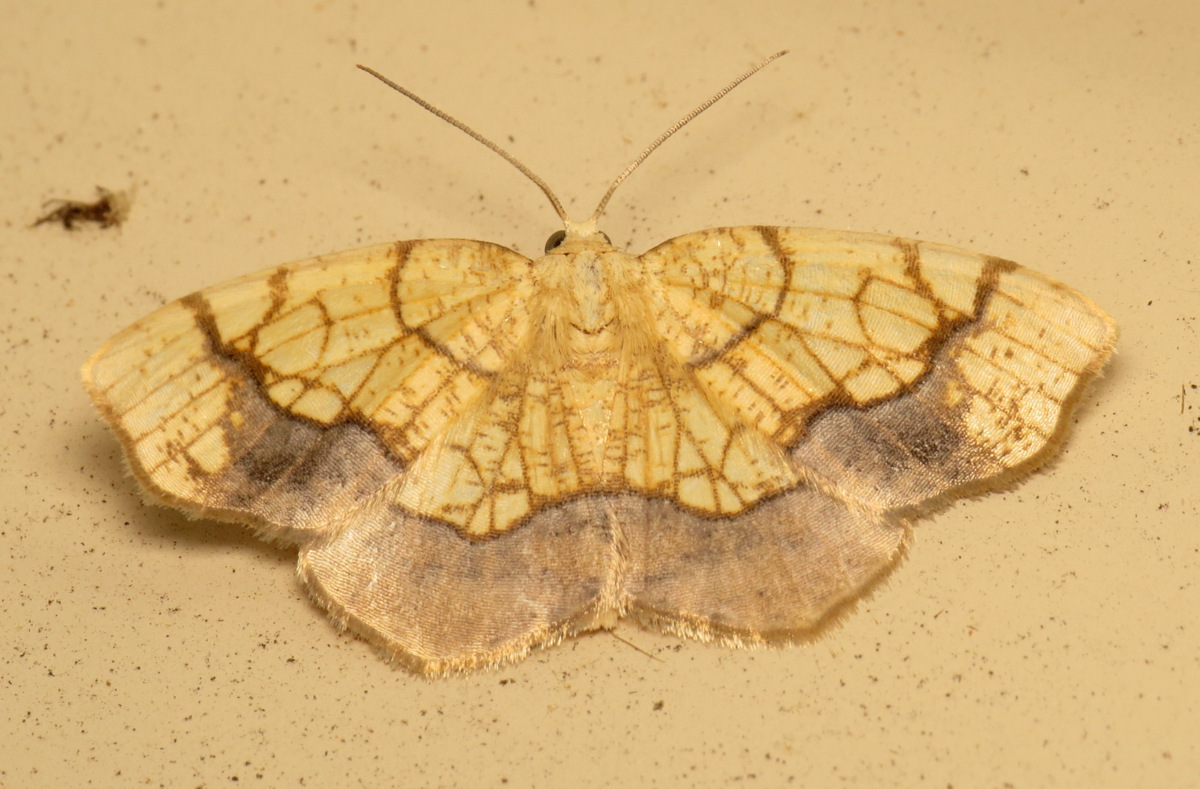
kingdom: Animalia
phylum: Arthropoda
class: Insecta
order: Lepidoptera
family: Geometridae
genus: Nematocampa
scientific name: Nematocampa resistaria
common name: Horned spanworm moth
